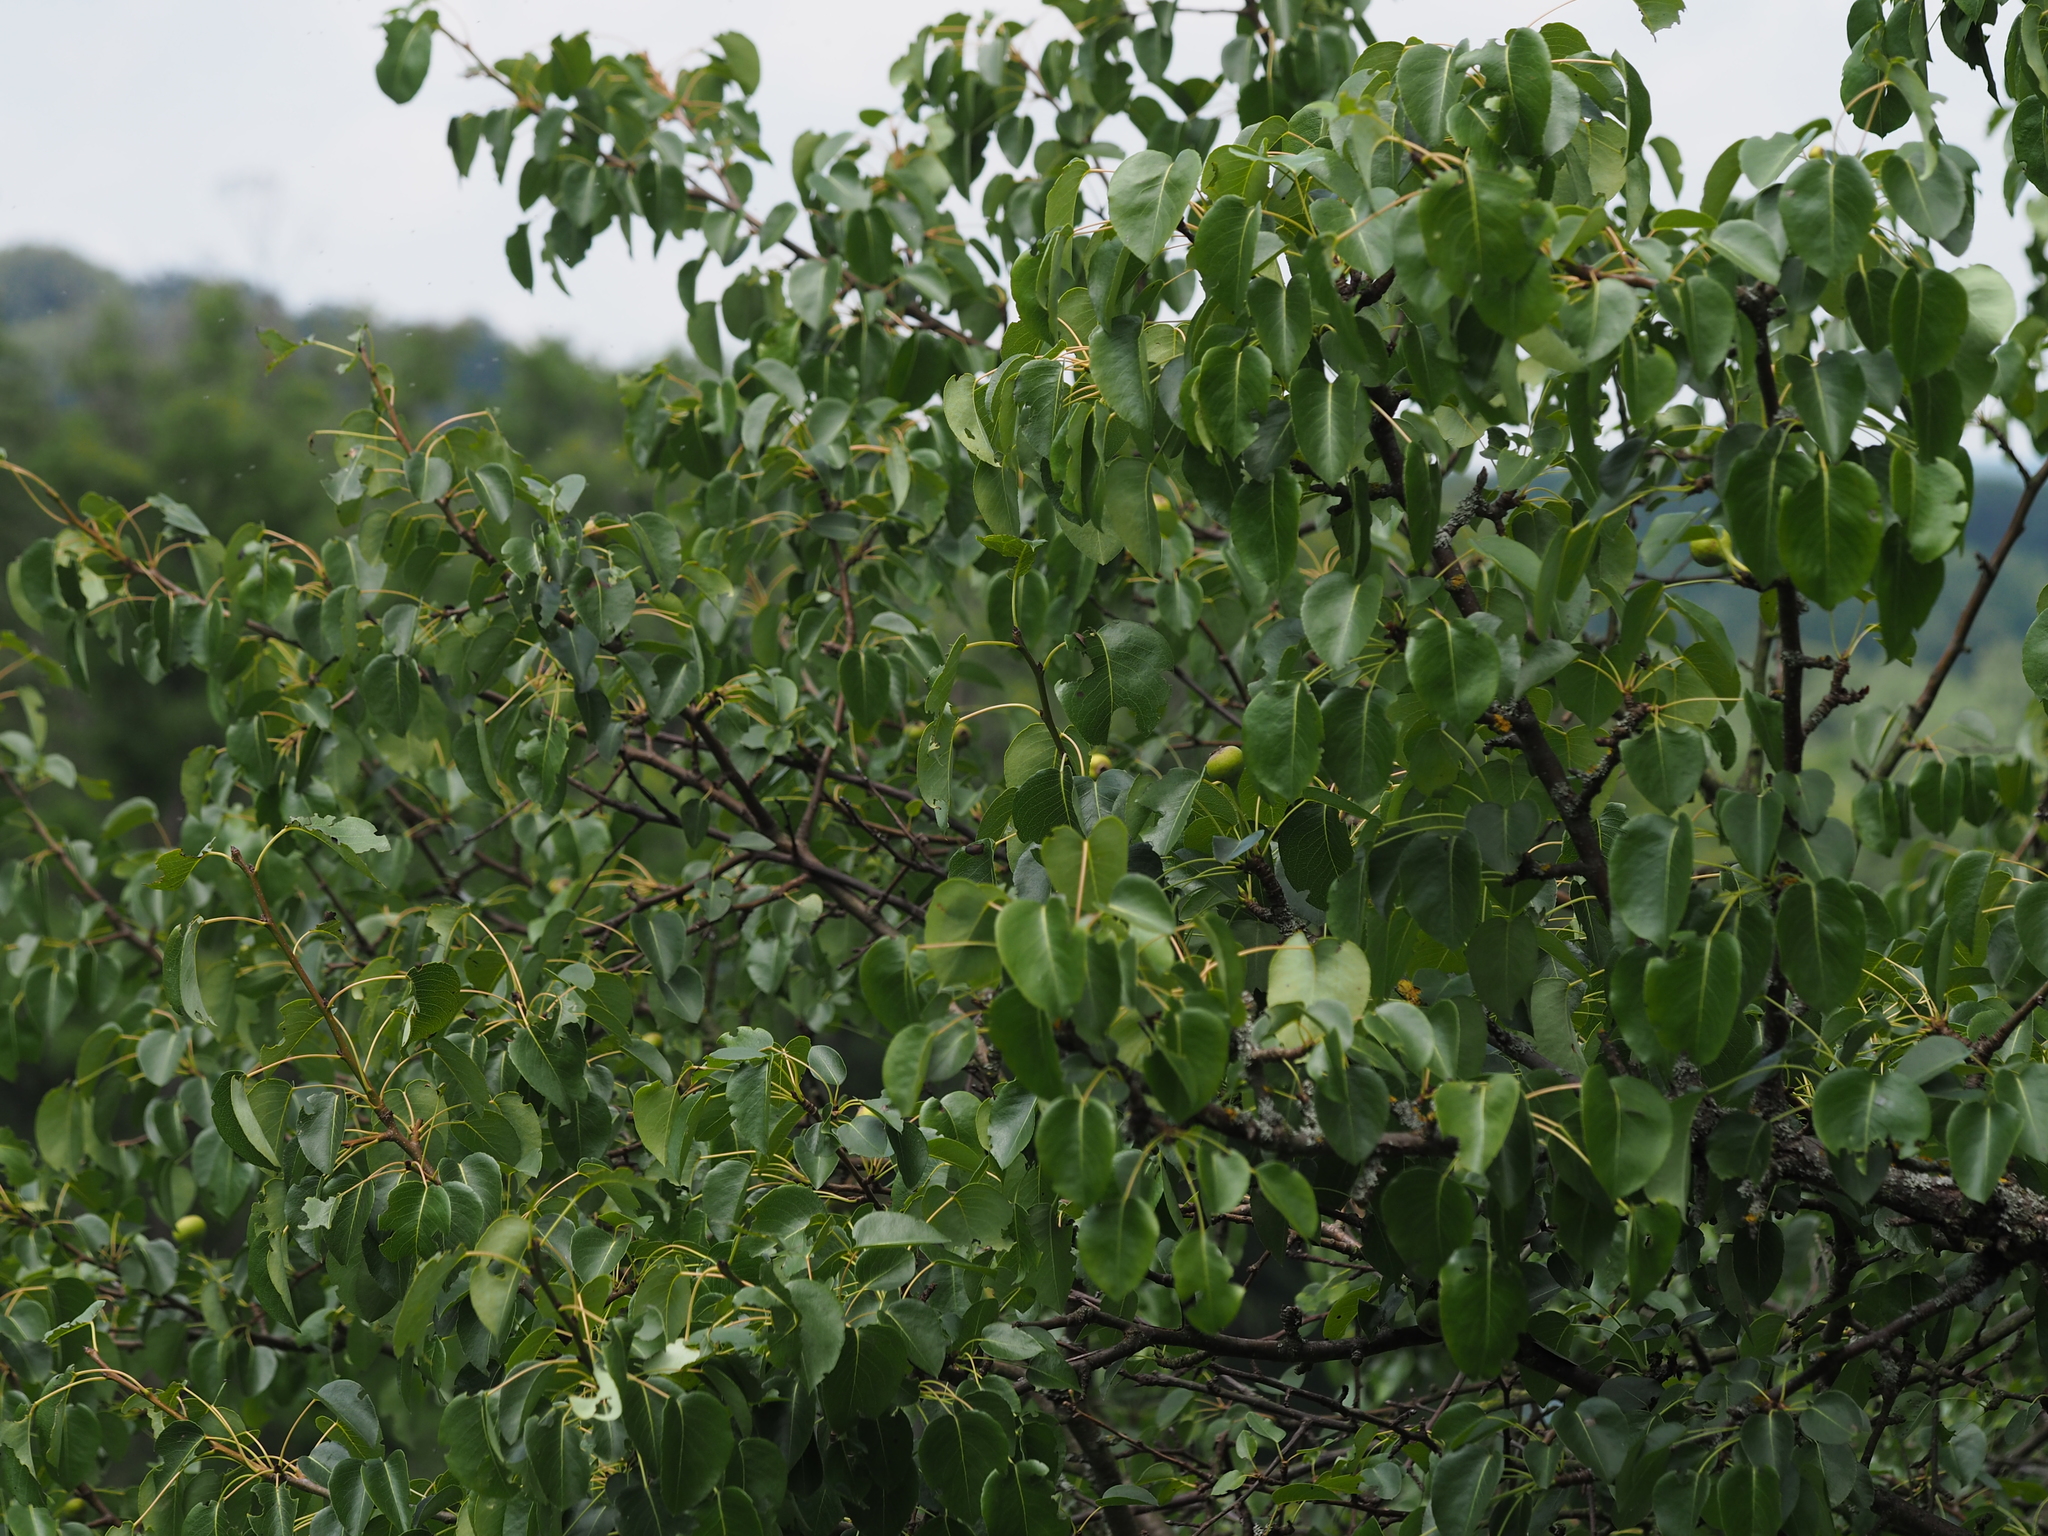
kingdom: Plantae
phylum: Tracheophyta
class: Magnoliopsida
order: Rosales
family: Rosaceae
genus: Pyrus
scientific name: Pyrus
